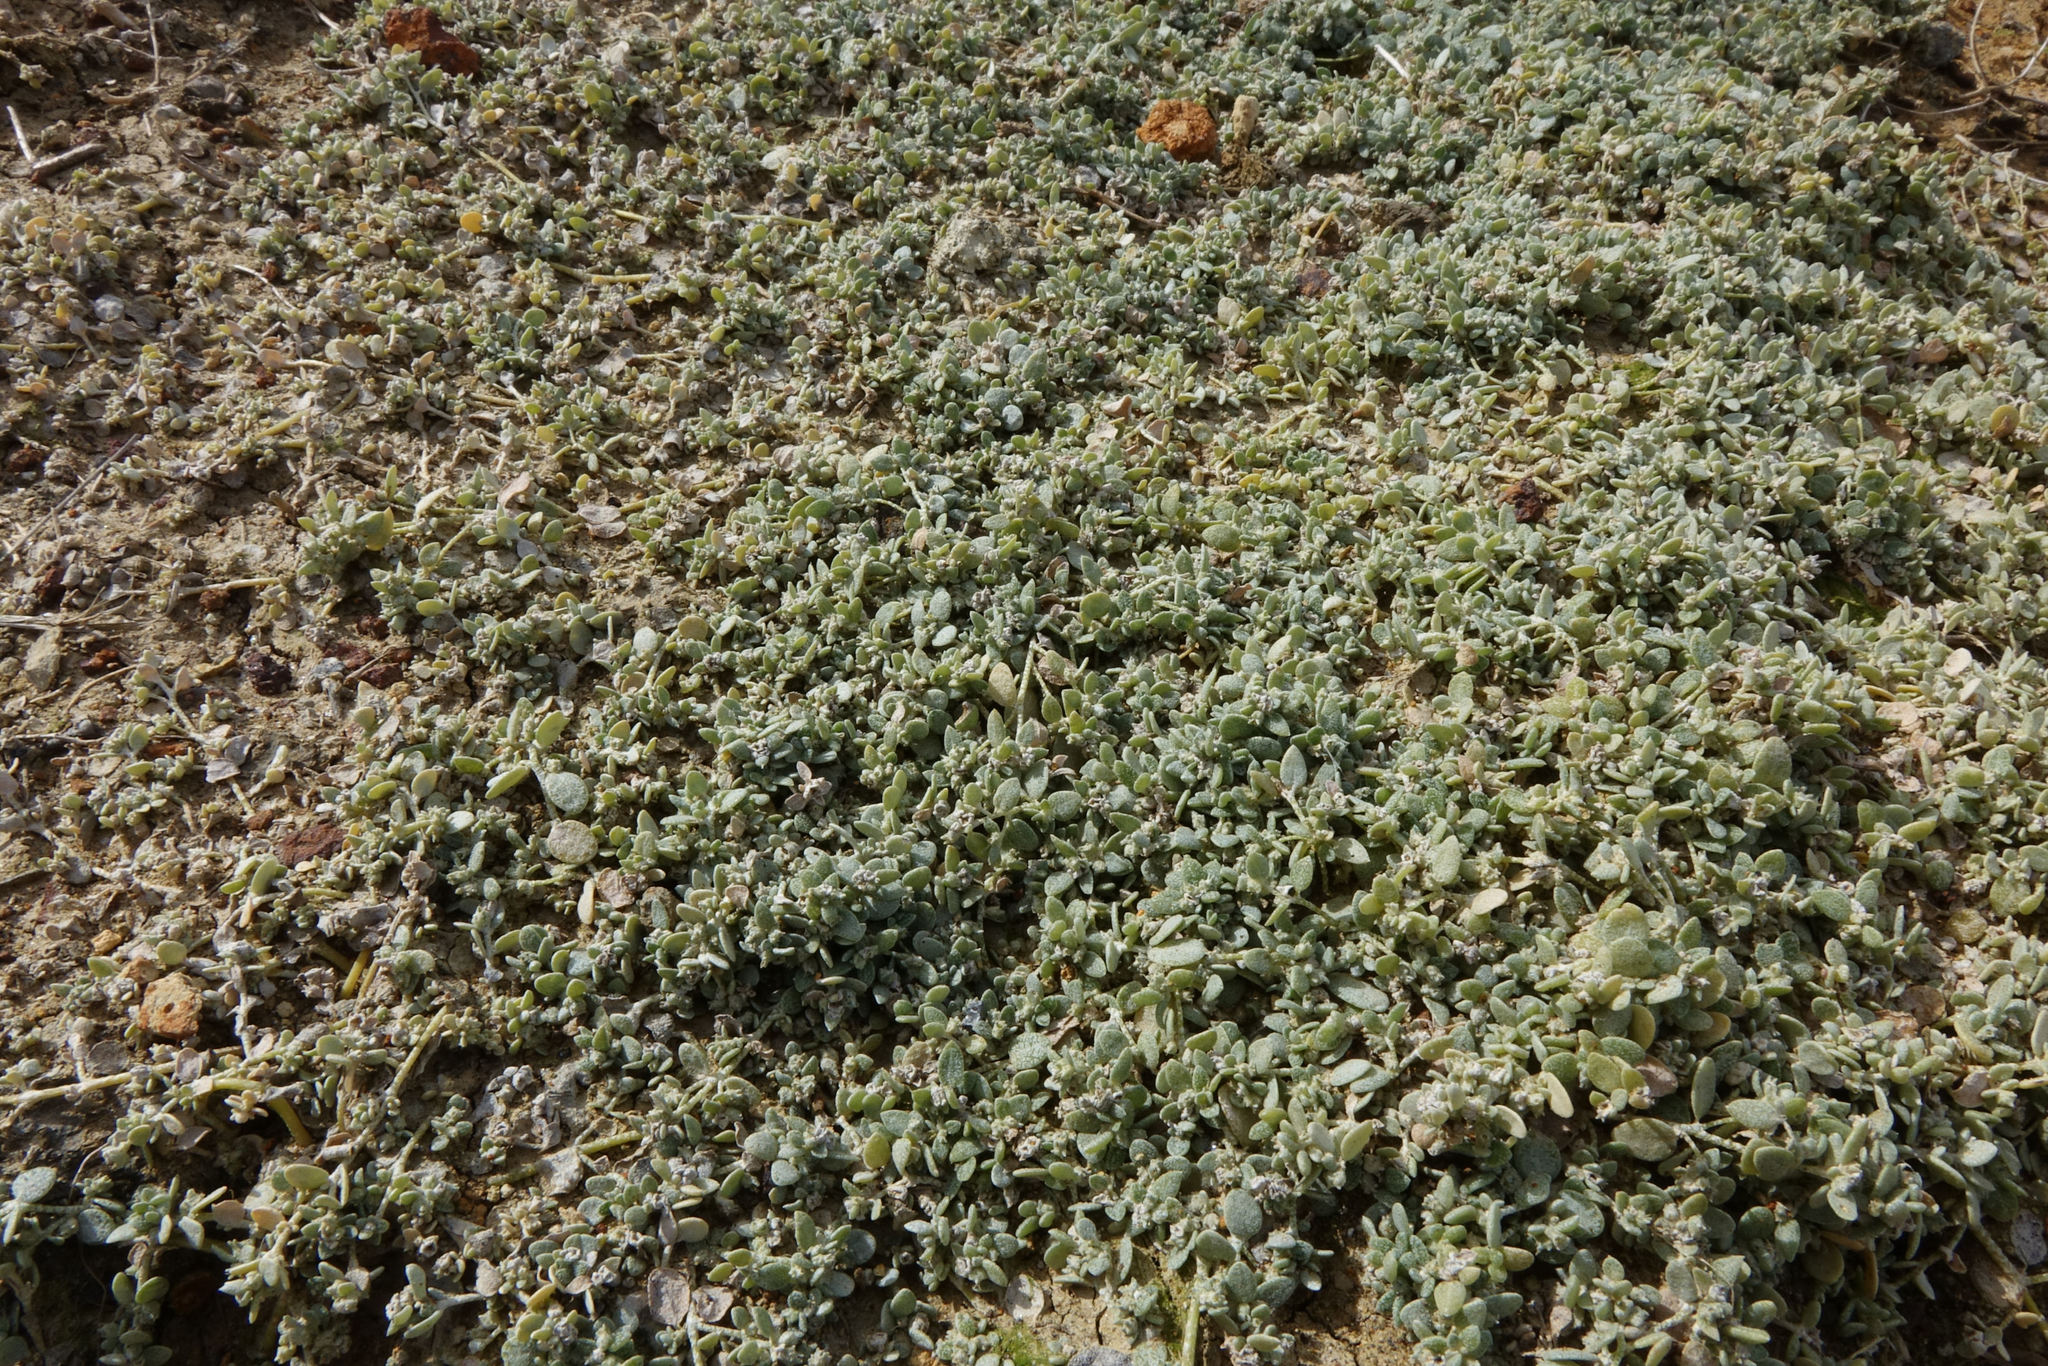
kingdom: Plantae
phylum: Tracheophyta
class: Magnoliopsida
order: Caryophyllales
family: Amaranthaceae
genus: Atriplex
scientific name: Atriplex buchananii
